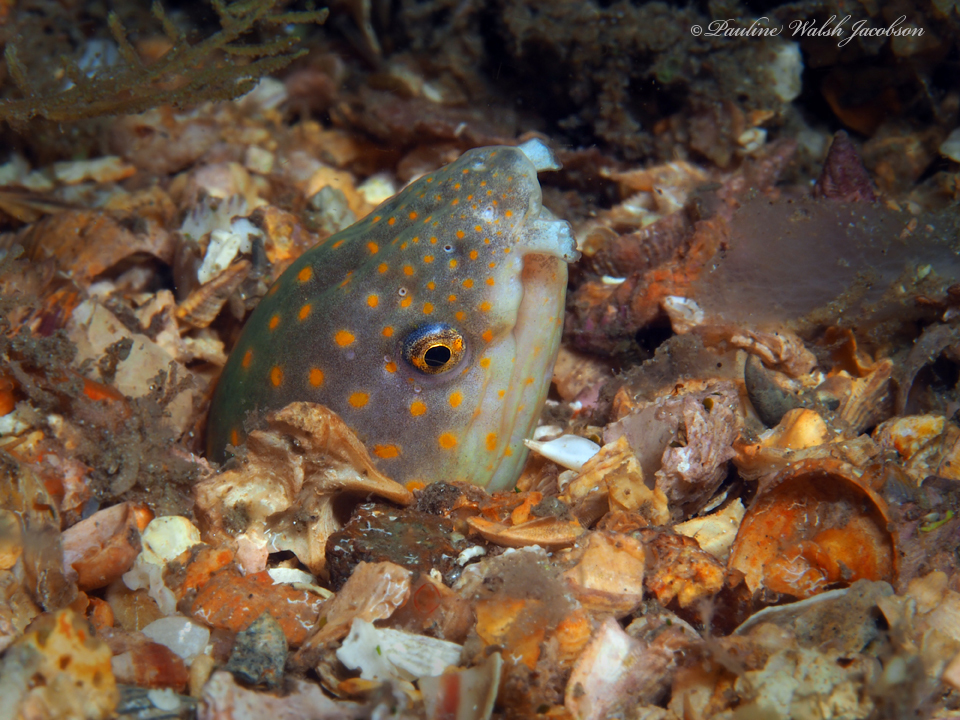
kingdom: Animalia
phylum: Chordata
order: Anguilliformes
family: Ophichthidae
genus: Myrichthys
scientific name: Myrichthys breviceps
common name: Sharptail eel
